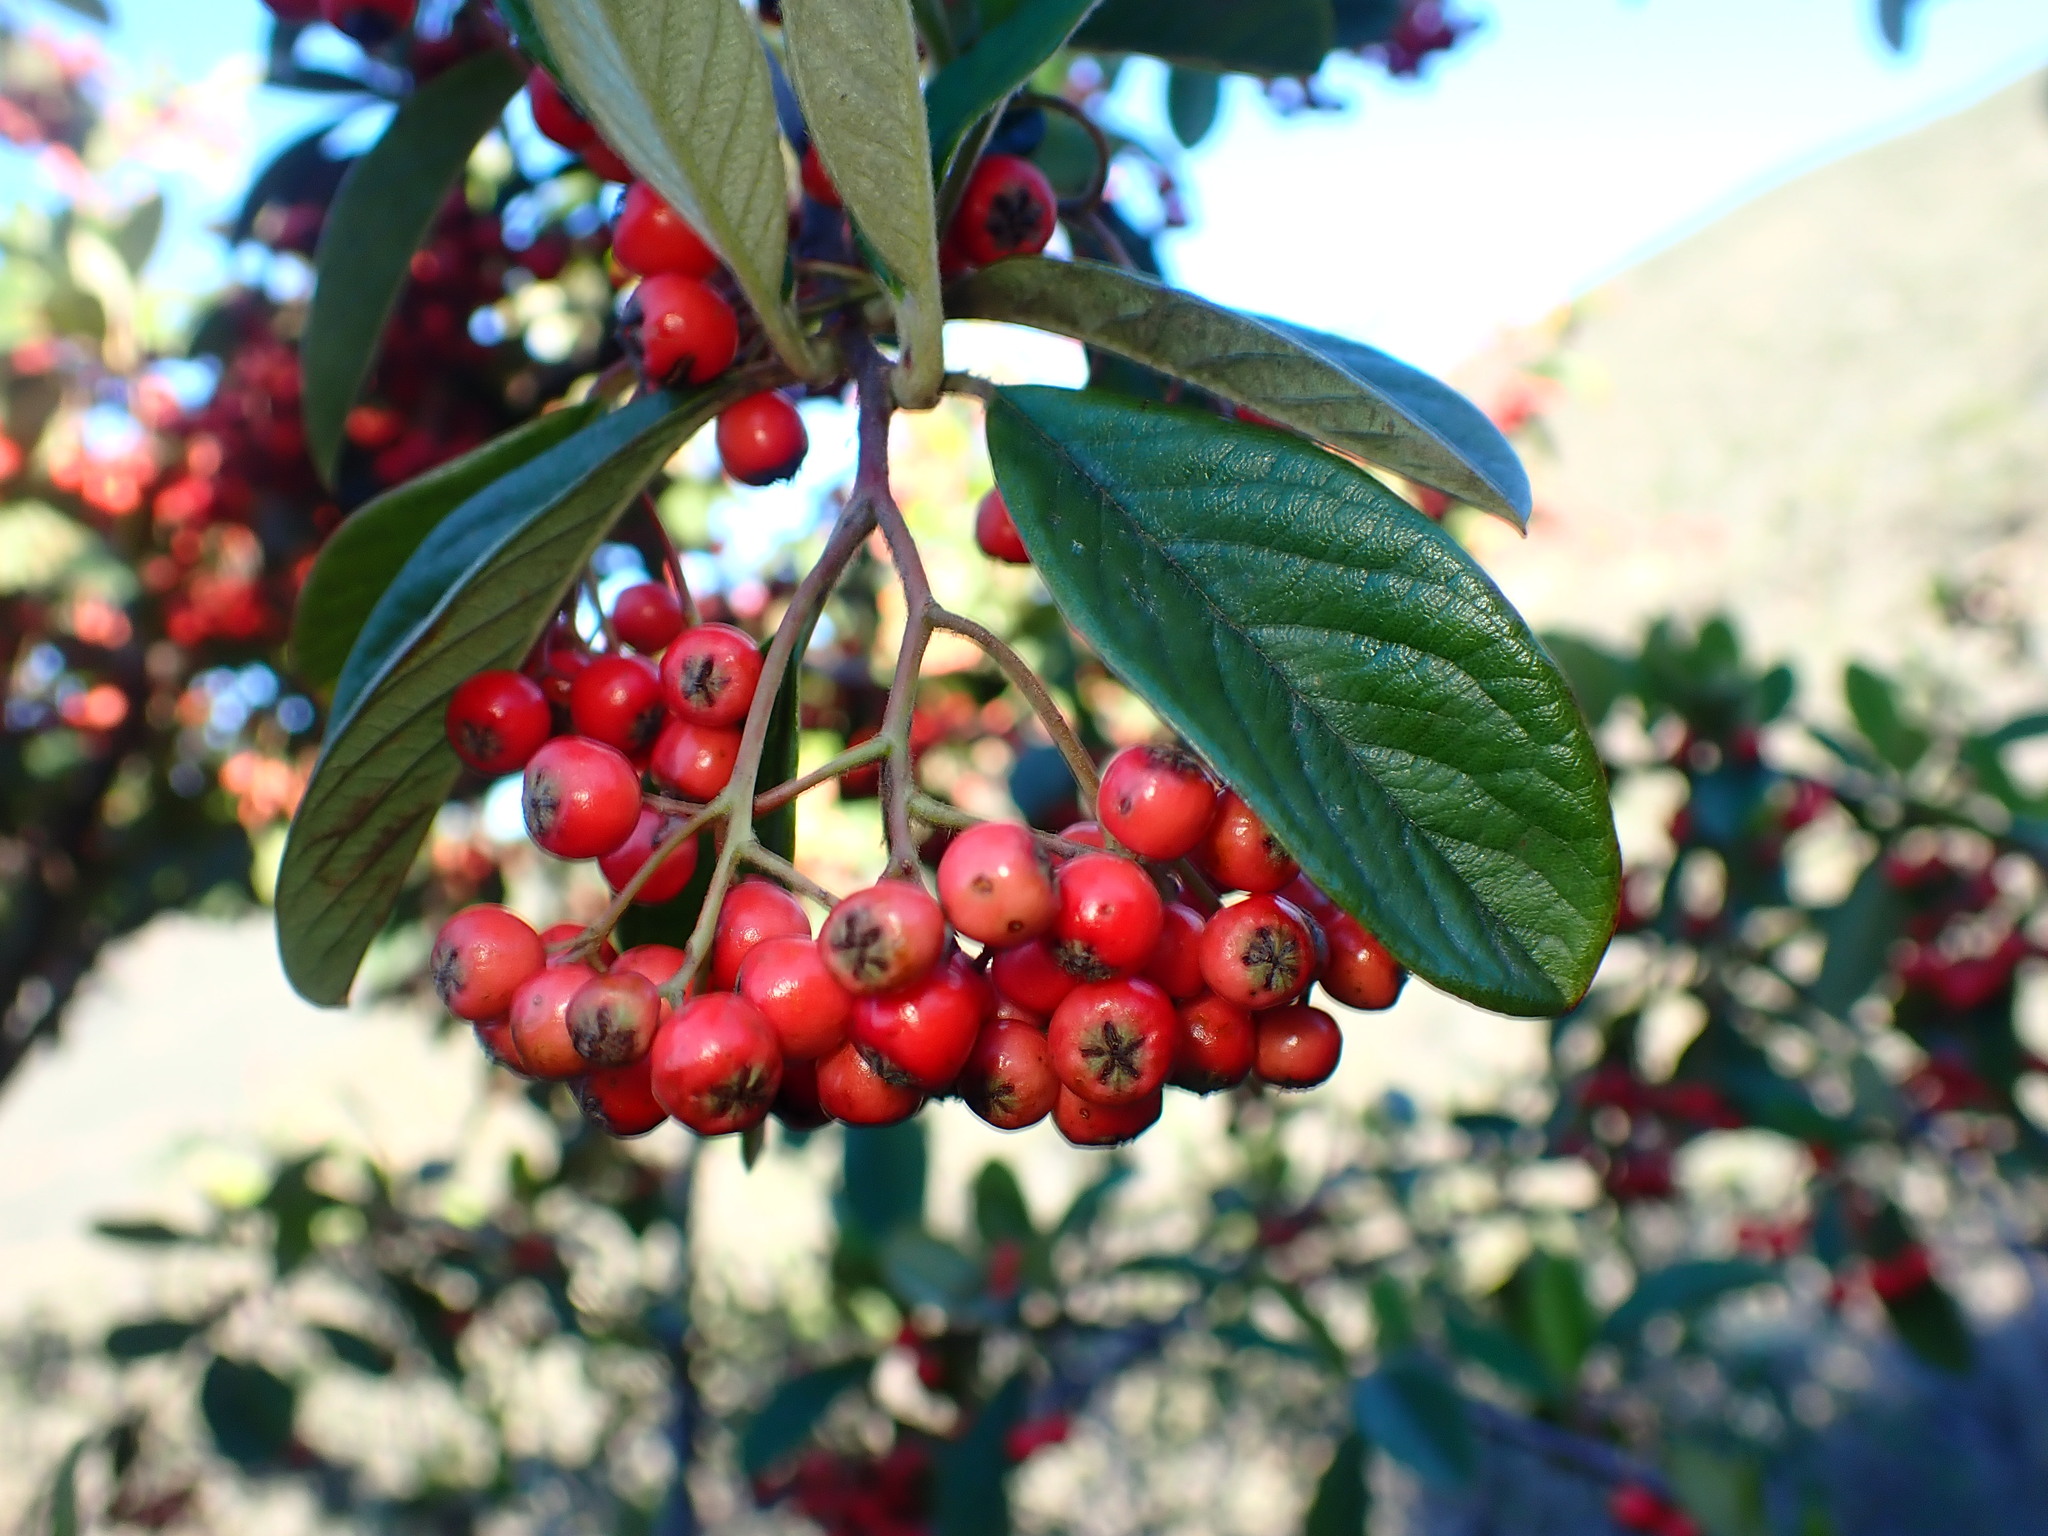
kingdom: Plantae
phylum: Tracheophyta
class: Magnoliopsida
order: Rosales
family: Rosaceae
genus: Cotoneaster
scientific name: Cotoneaster coriaceus
